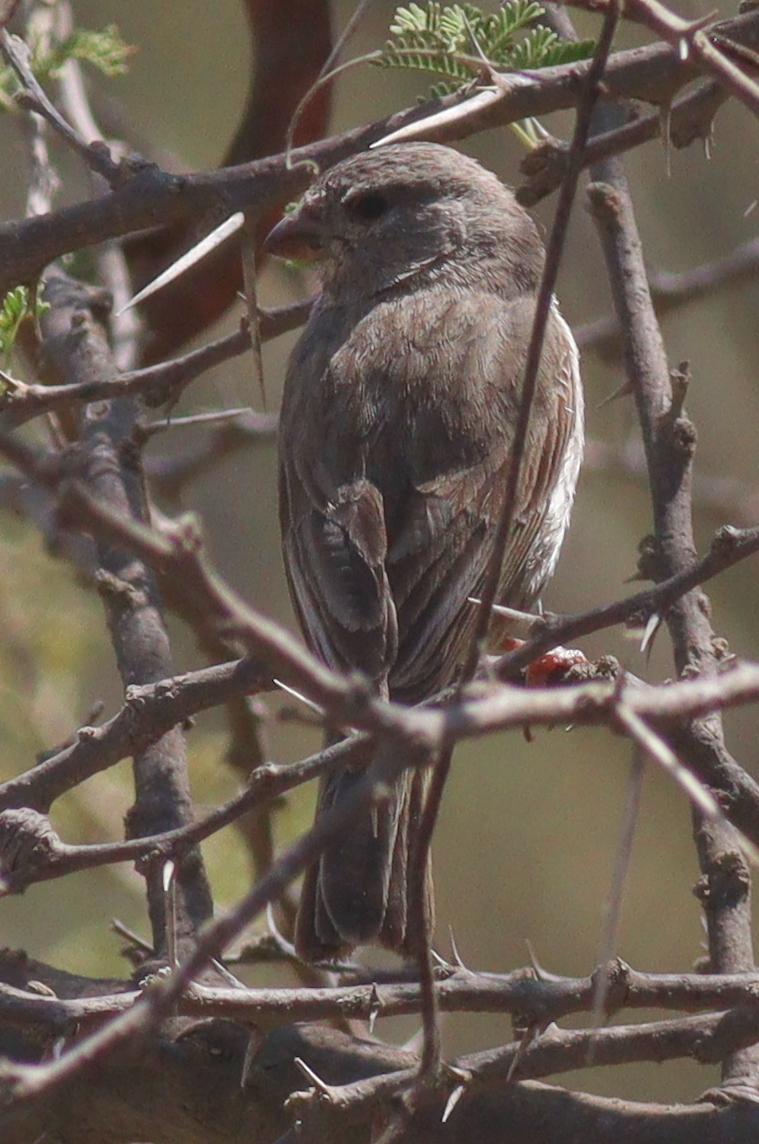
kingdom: Animalia
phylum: Chordata
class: Aves
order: Passeriformes
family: Fringillidae
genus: Crithagra
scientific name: Crithagra rothschildi
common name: Arabian serin
